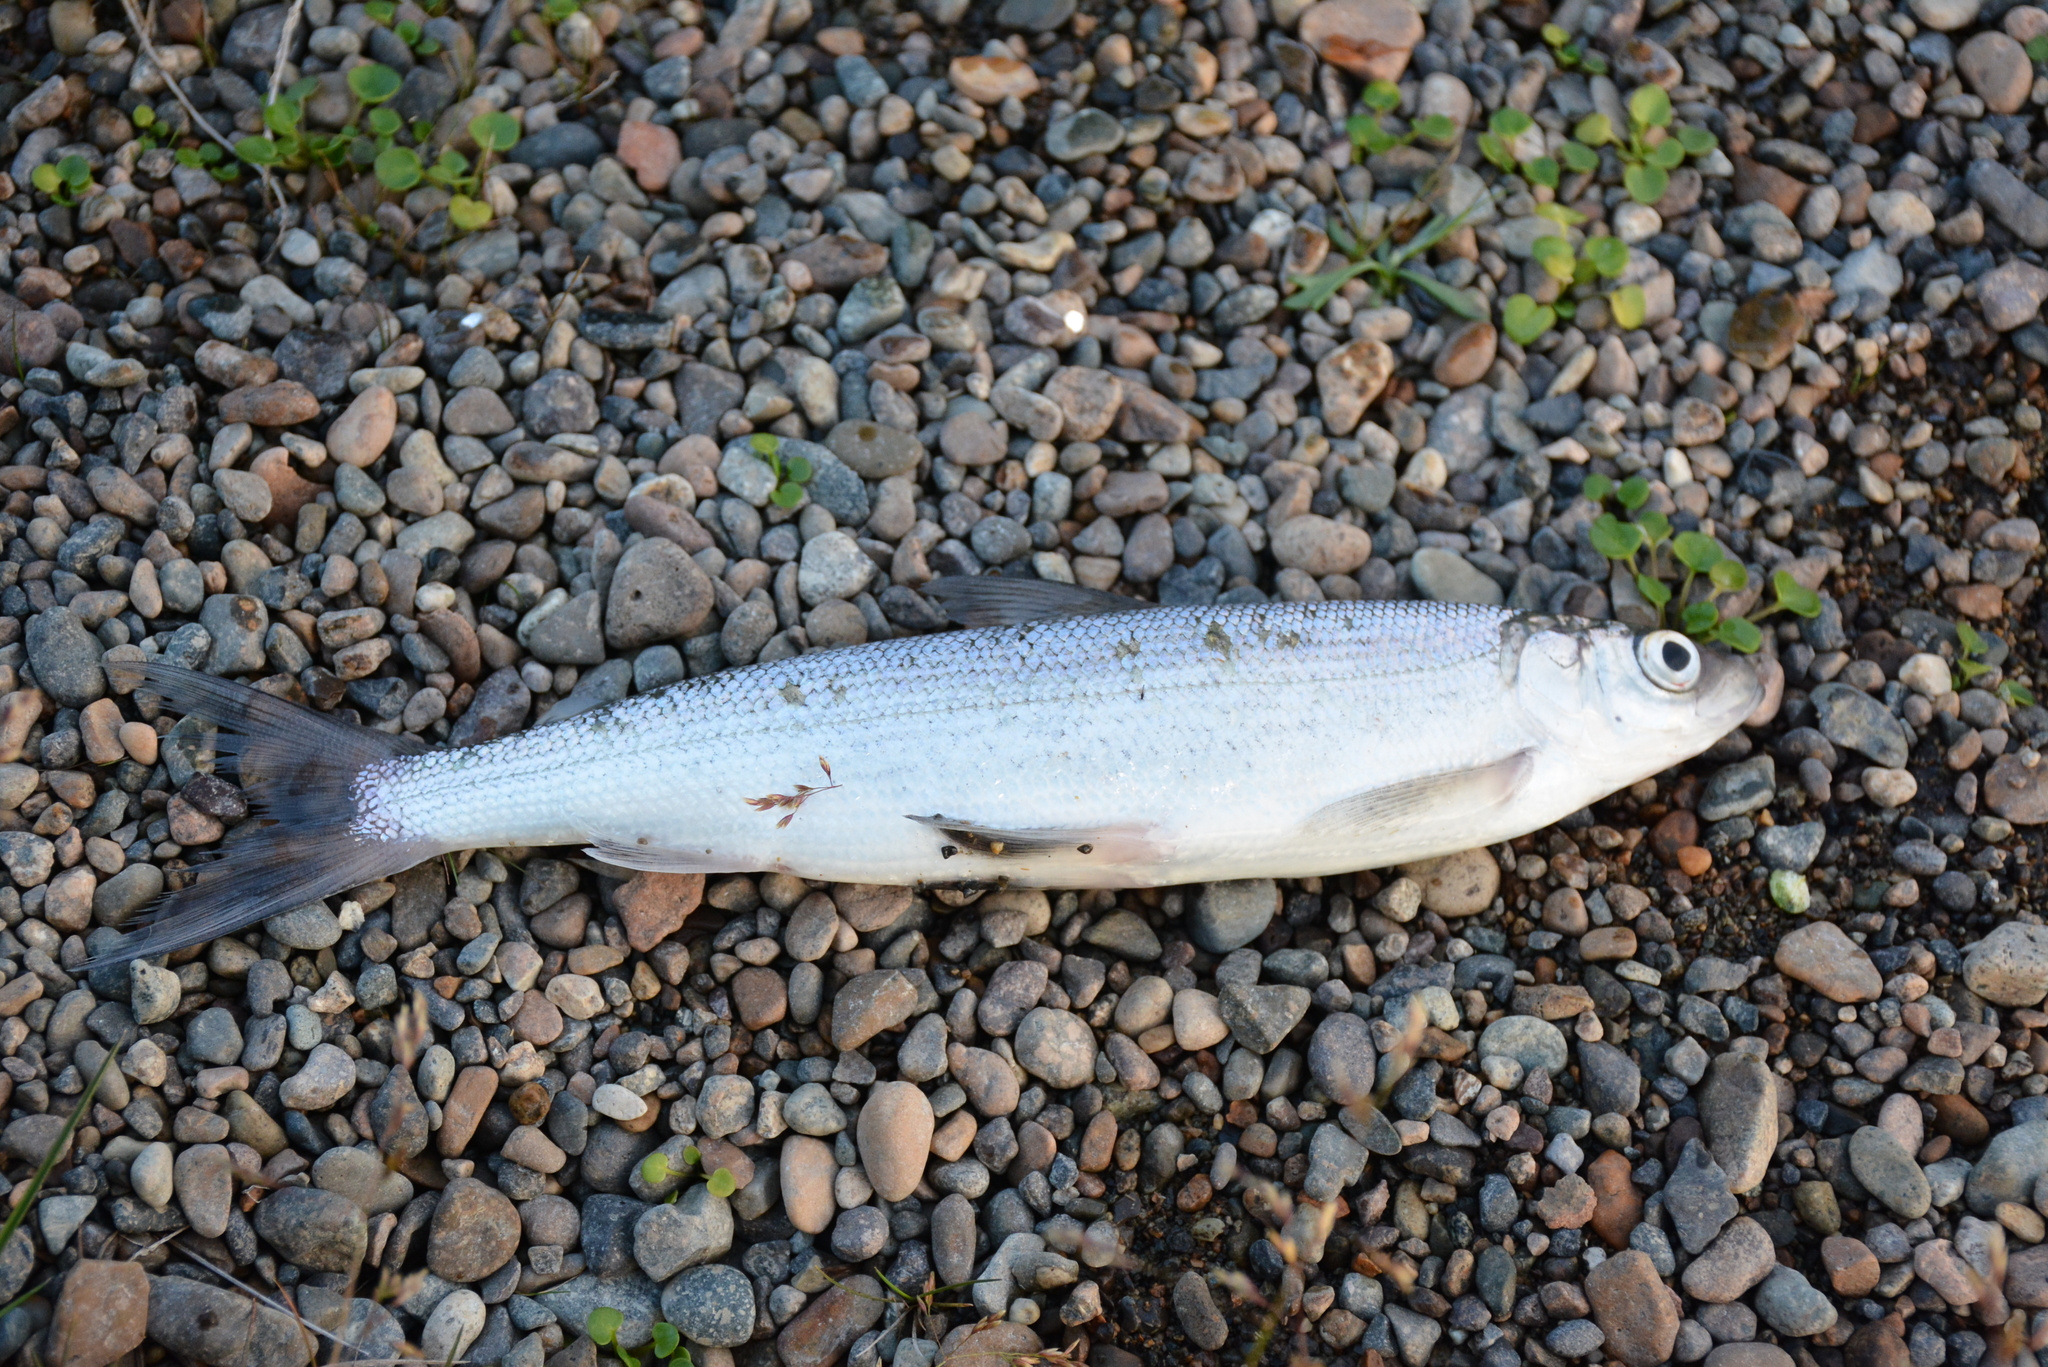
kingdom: Animalia
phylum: Chordata
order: Salmoniformes
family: Salmonidae
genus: Coregonus
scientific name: Coregonus laurettae
